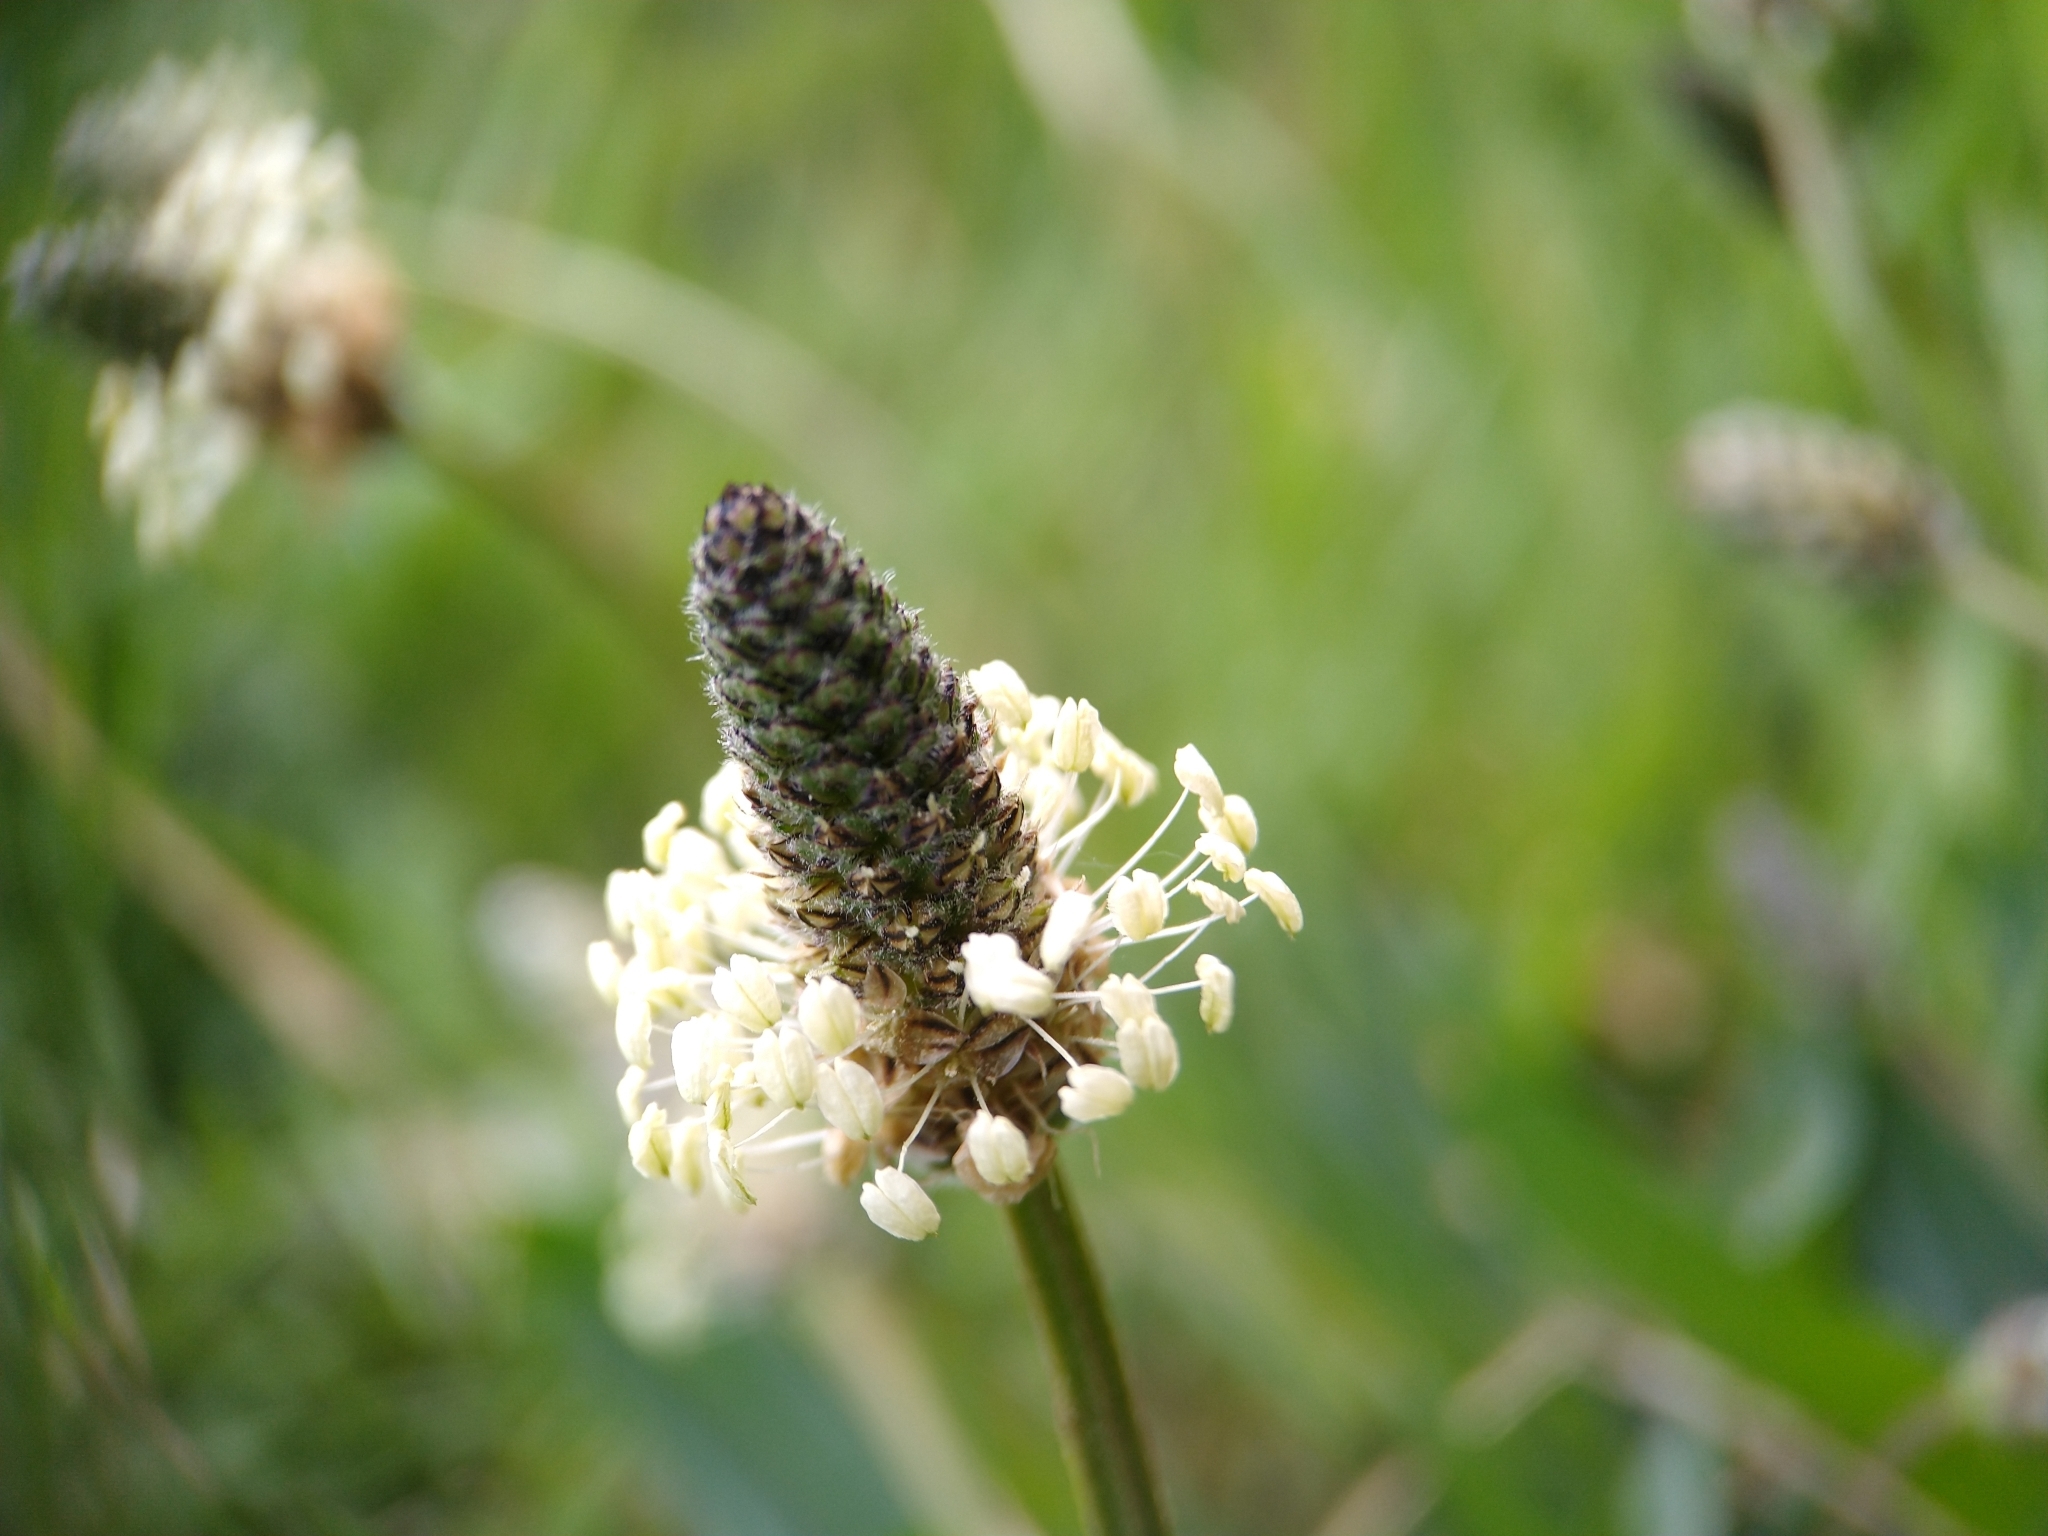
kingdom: Plantae
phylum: Tracheophyta
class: Magnoliopsida
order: Lamiales
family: Plantaginaceae
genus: Plantago
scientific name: Plantago lanceolata
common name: Ribwort plantain
